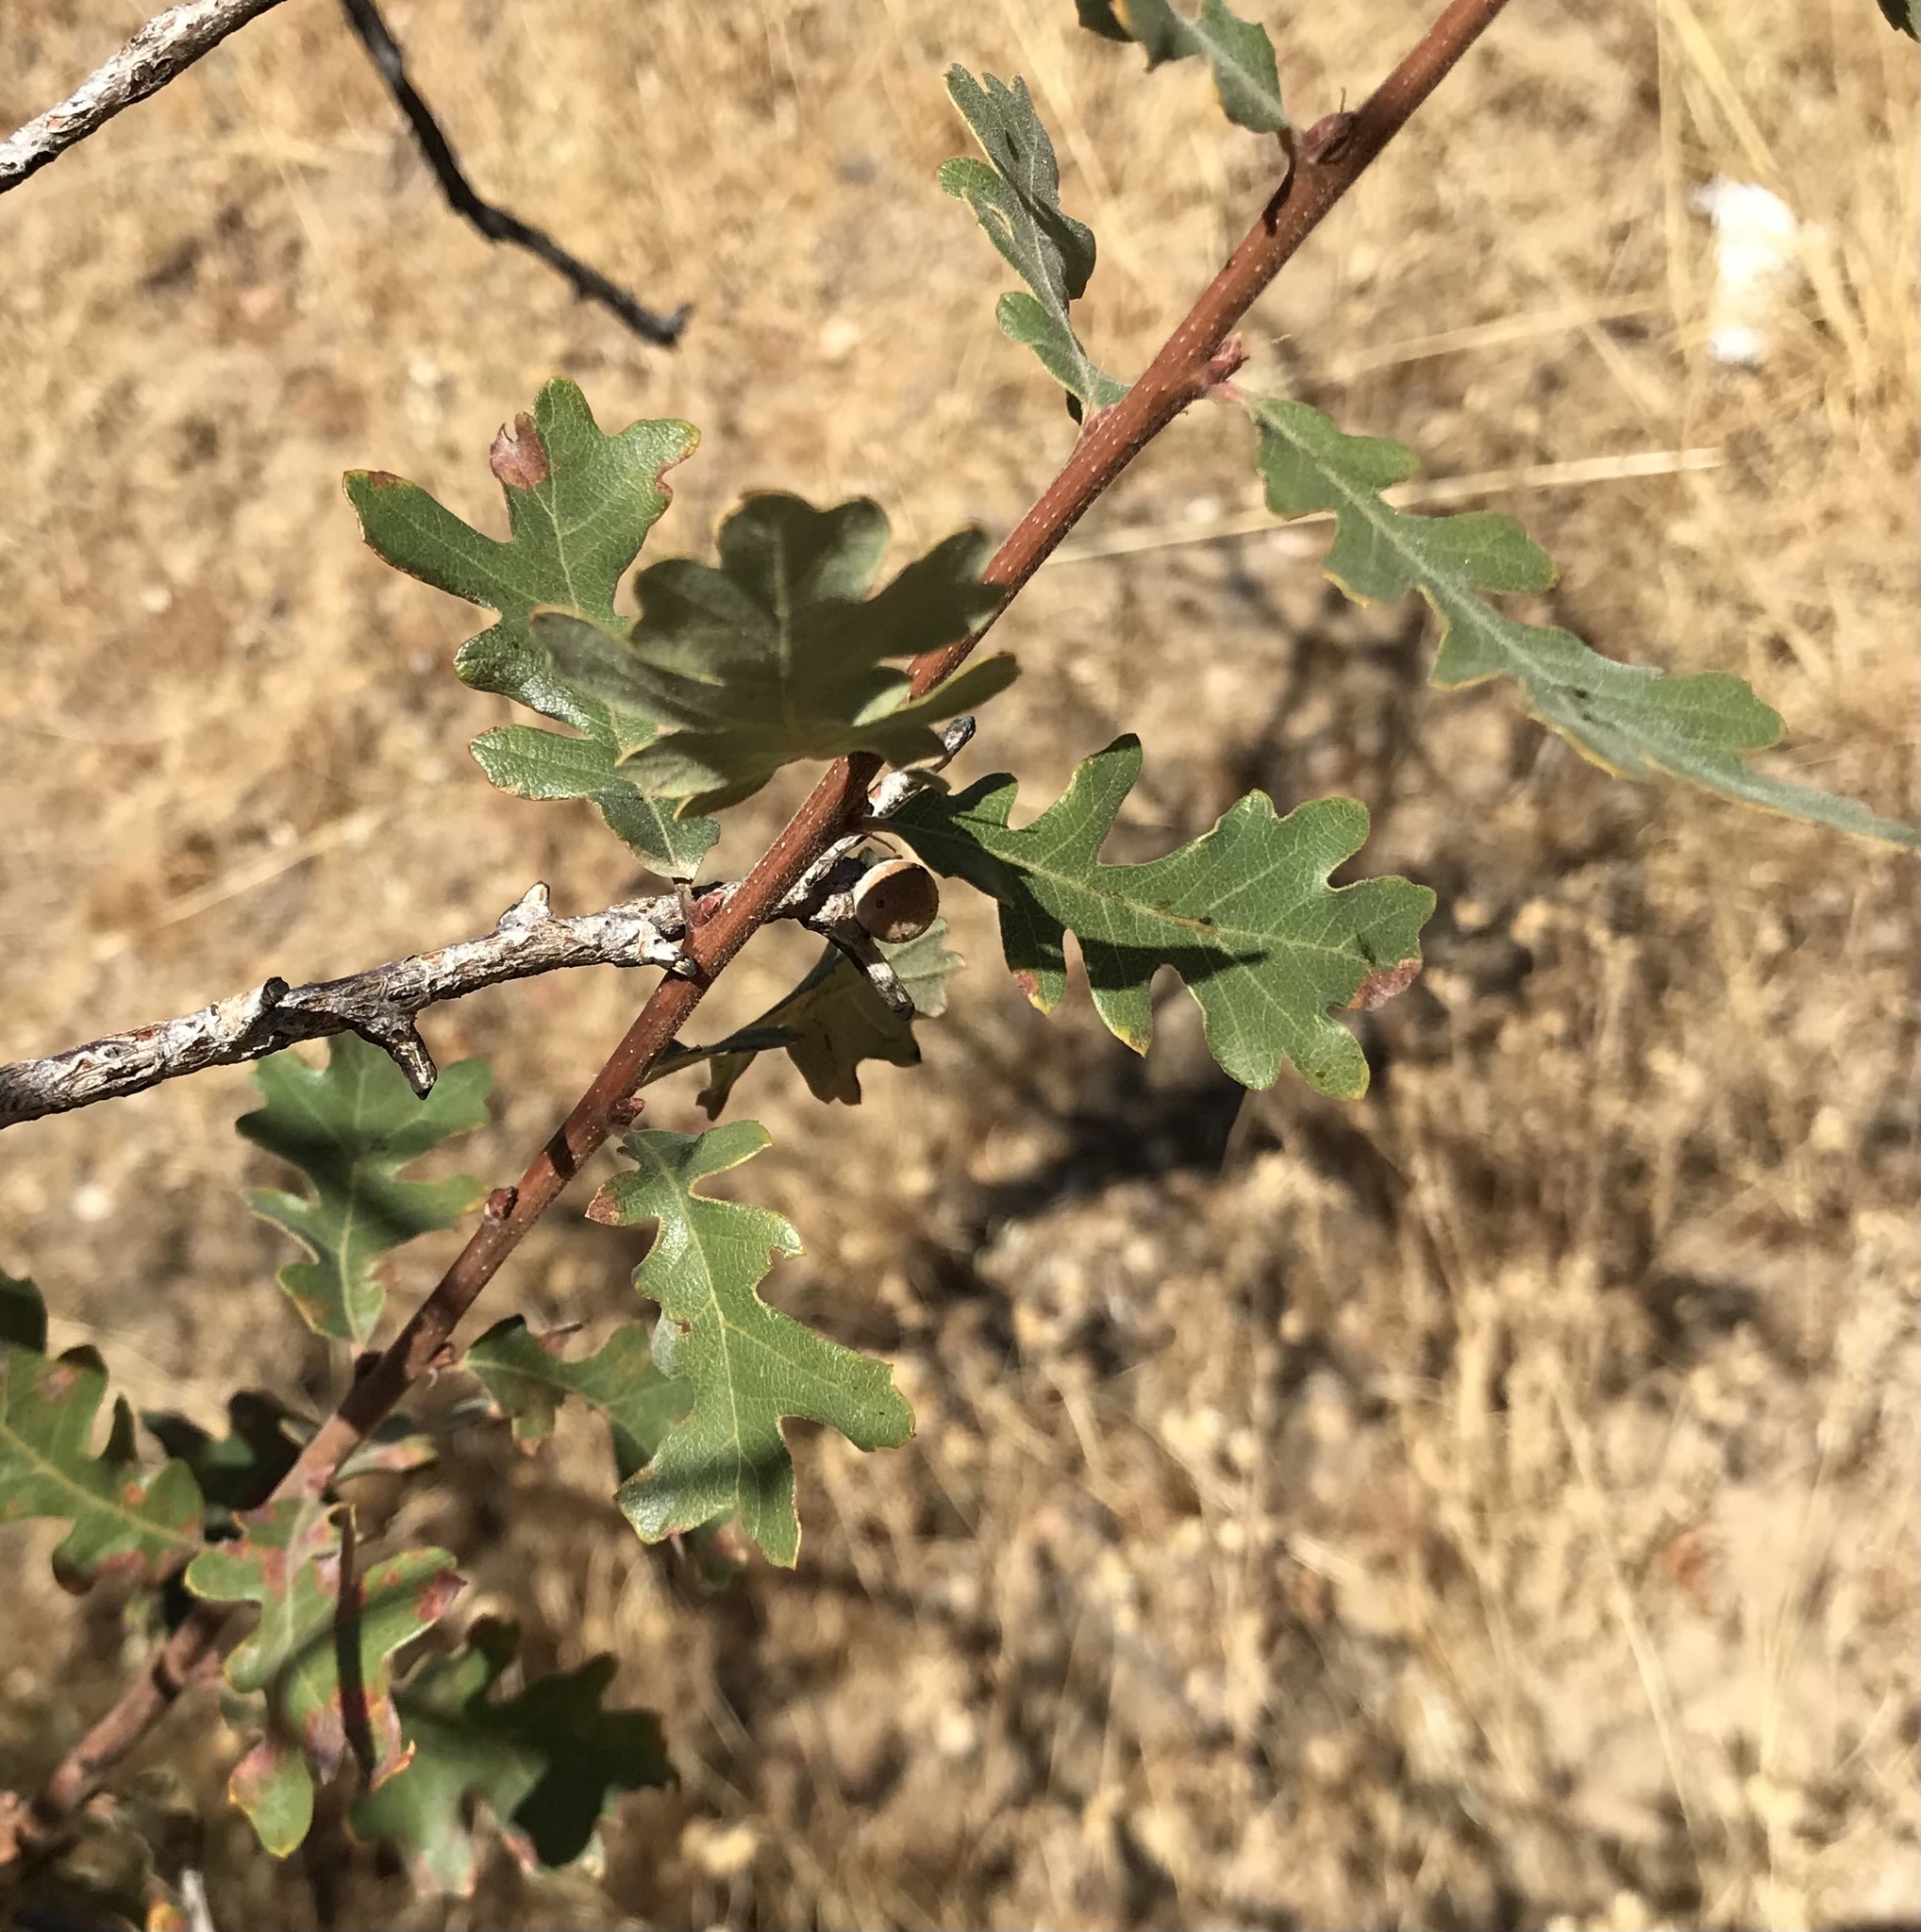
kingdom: Plantae
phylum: Tracheophyta
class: Magnoliopsida
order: Fagales
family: Fagaceae
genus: Quercus
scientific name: Quercus lobata
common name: Valley oak
